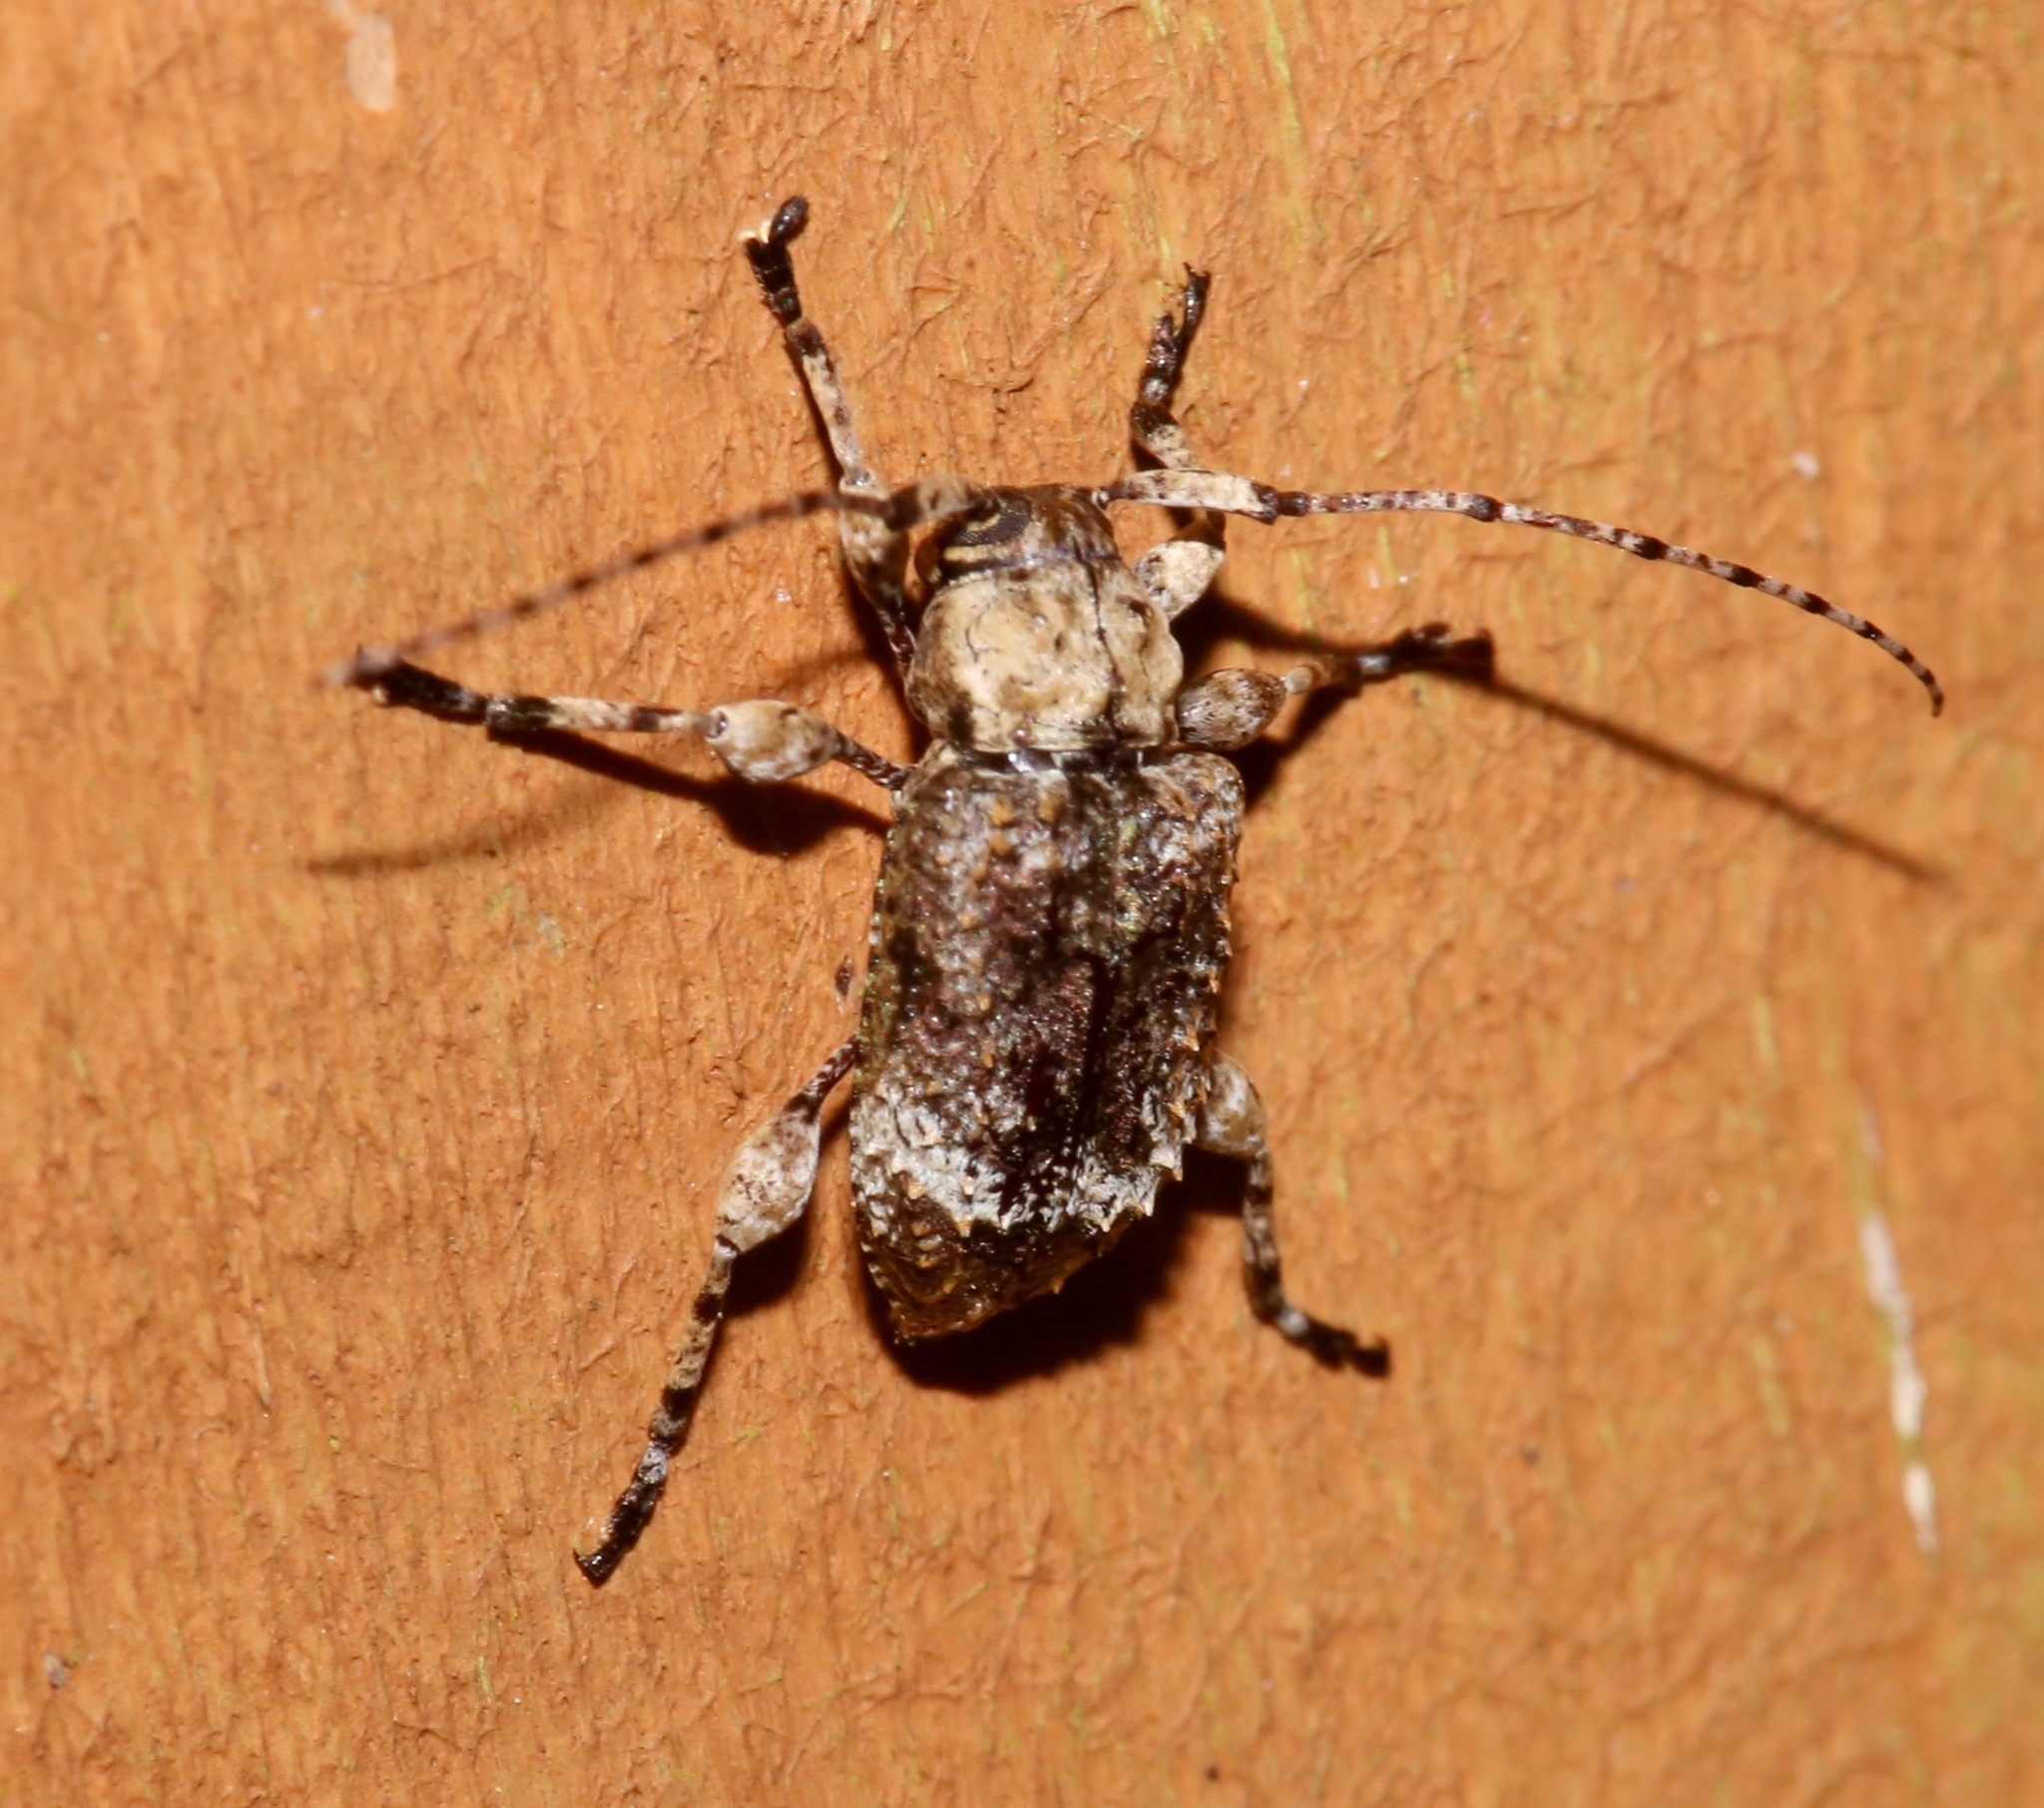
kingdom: Animalia
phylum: Arthropoda
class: Insecta
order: Coleoptera
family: Cerambycidae
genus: Leptostylus
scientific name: Leptostylus transversus
